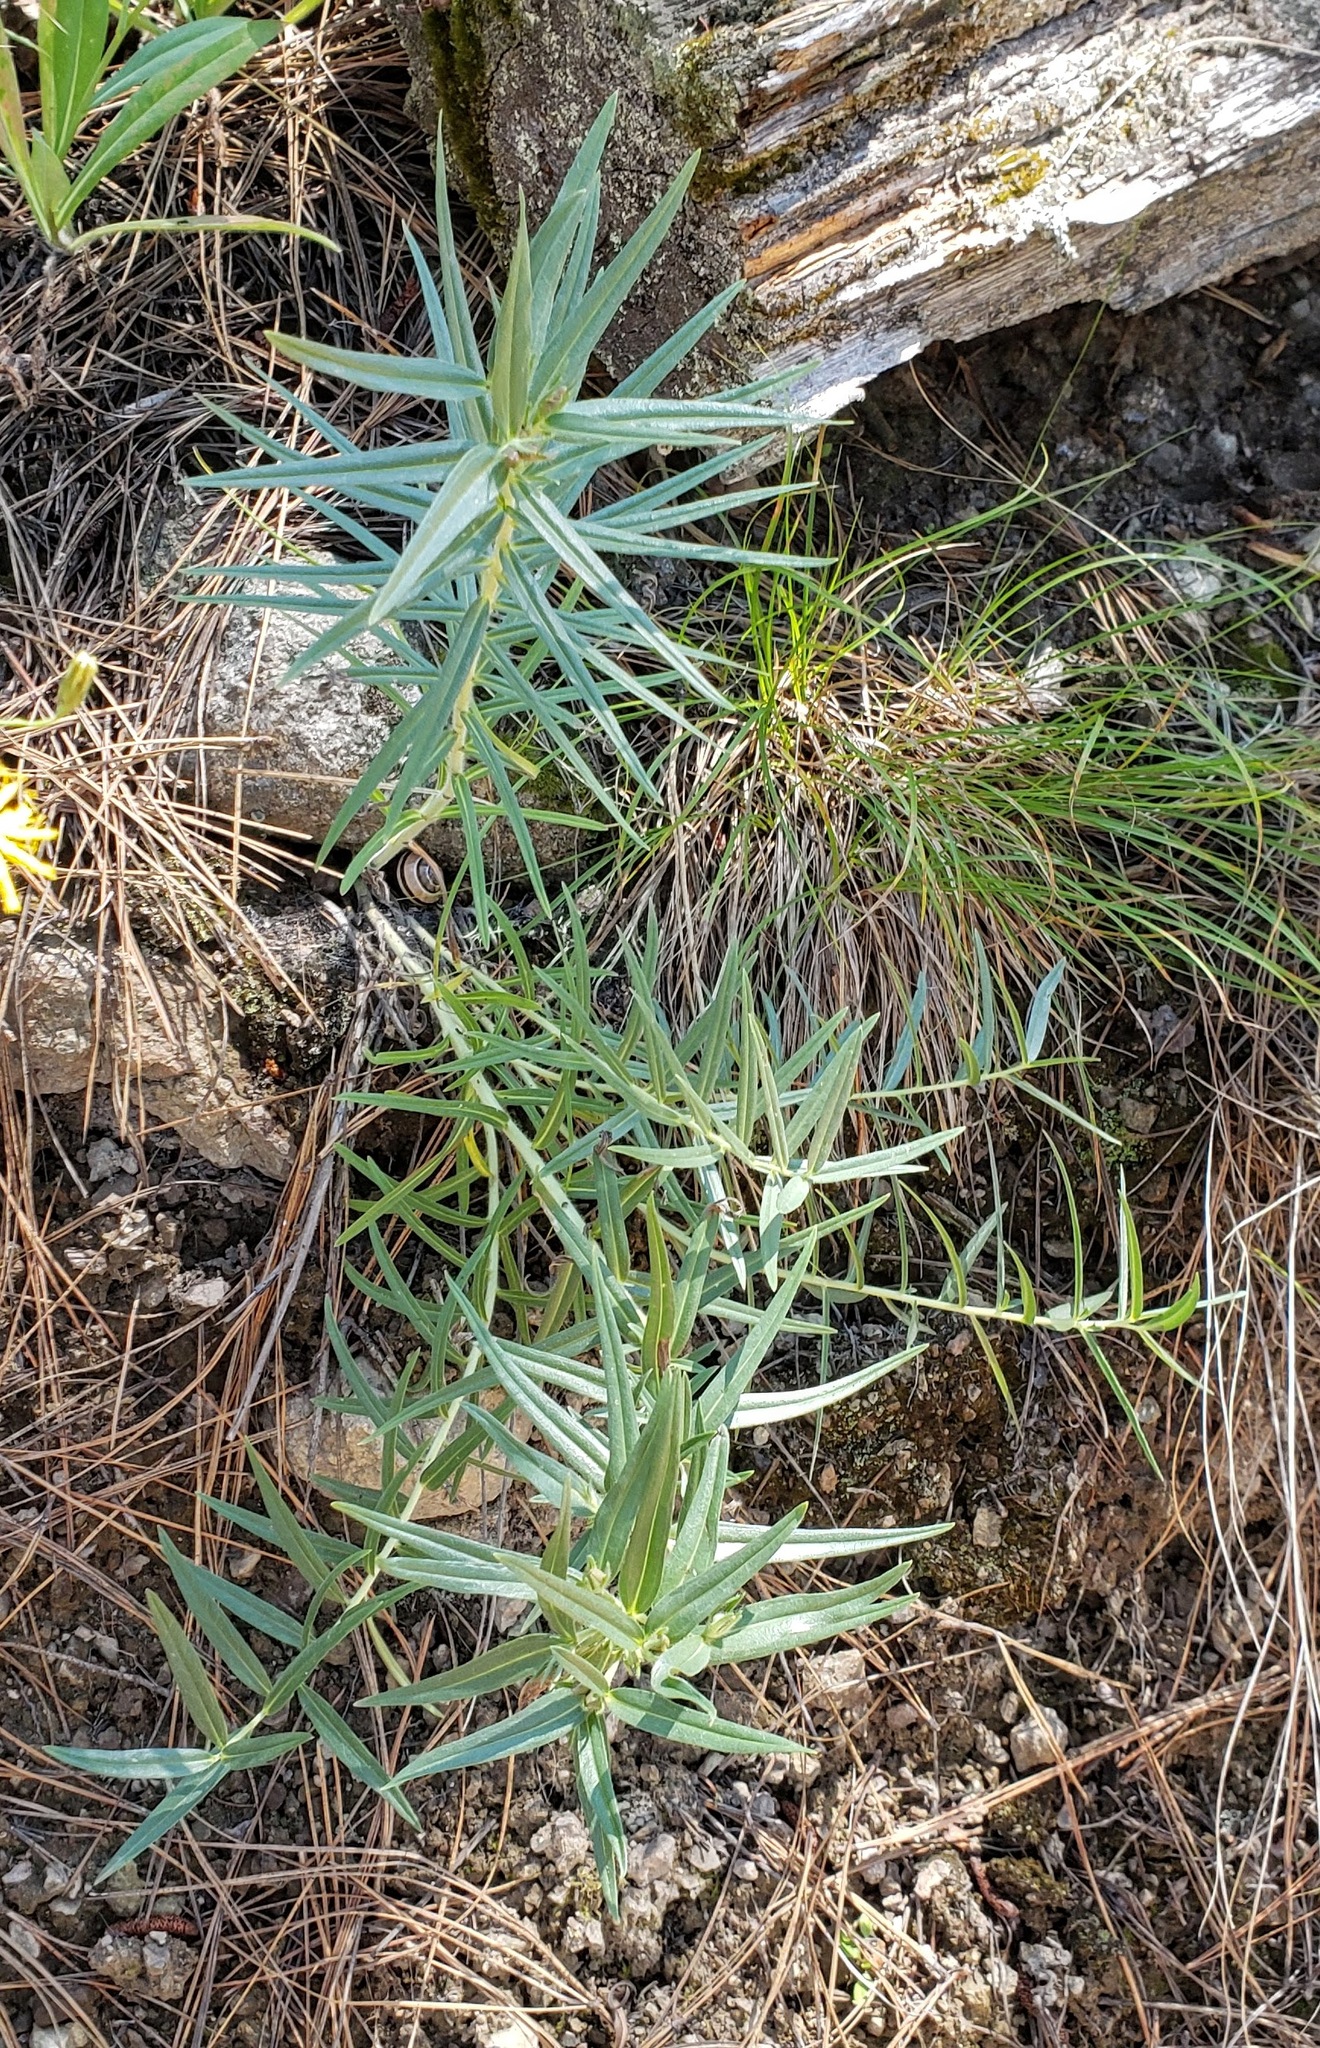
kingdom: Plantae
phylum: Tracheophyta
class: Magnoliopsida
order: Boraginales
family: Boraginaceae
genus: Lithospermum
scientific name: Lithospermum ruderale
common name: Western gromwell
